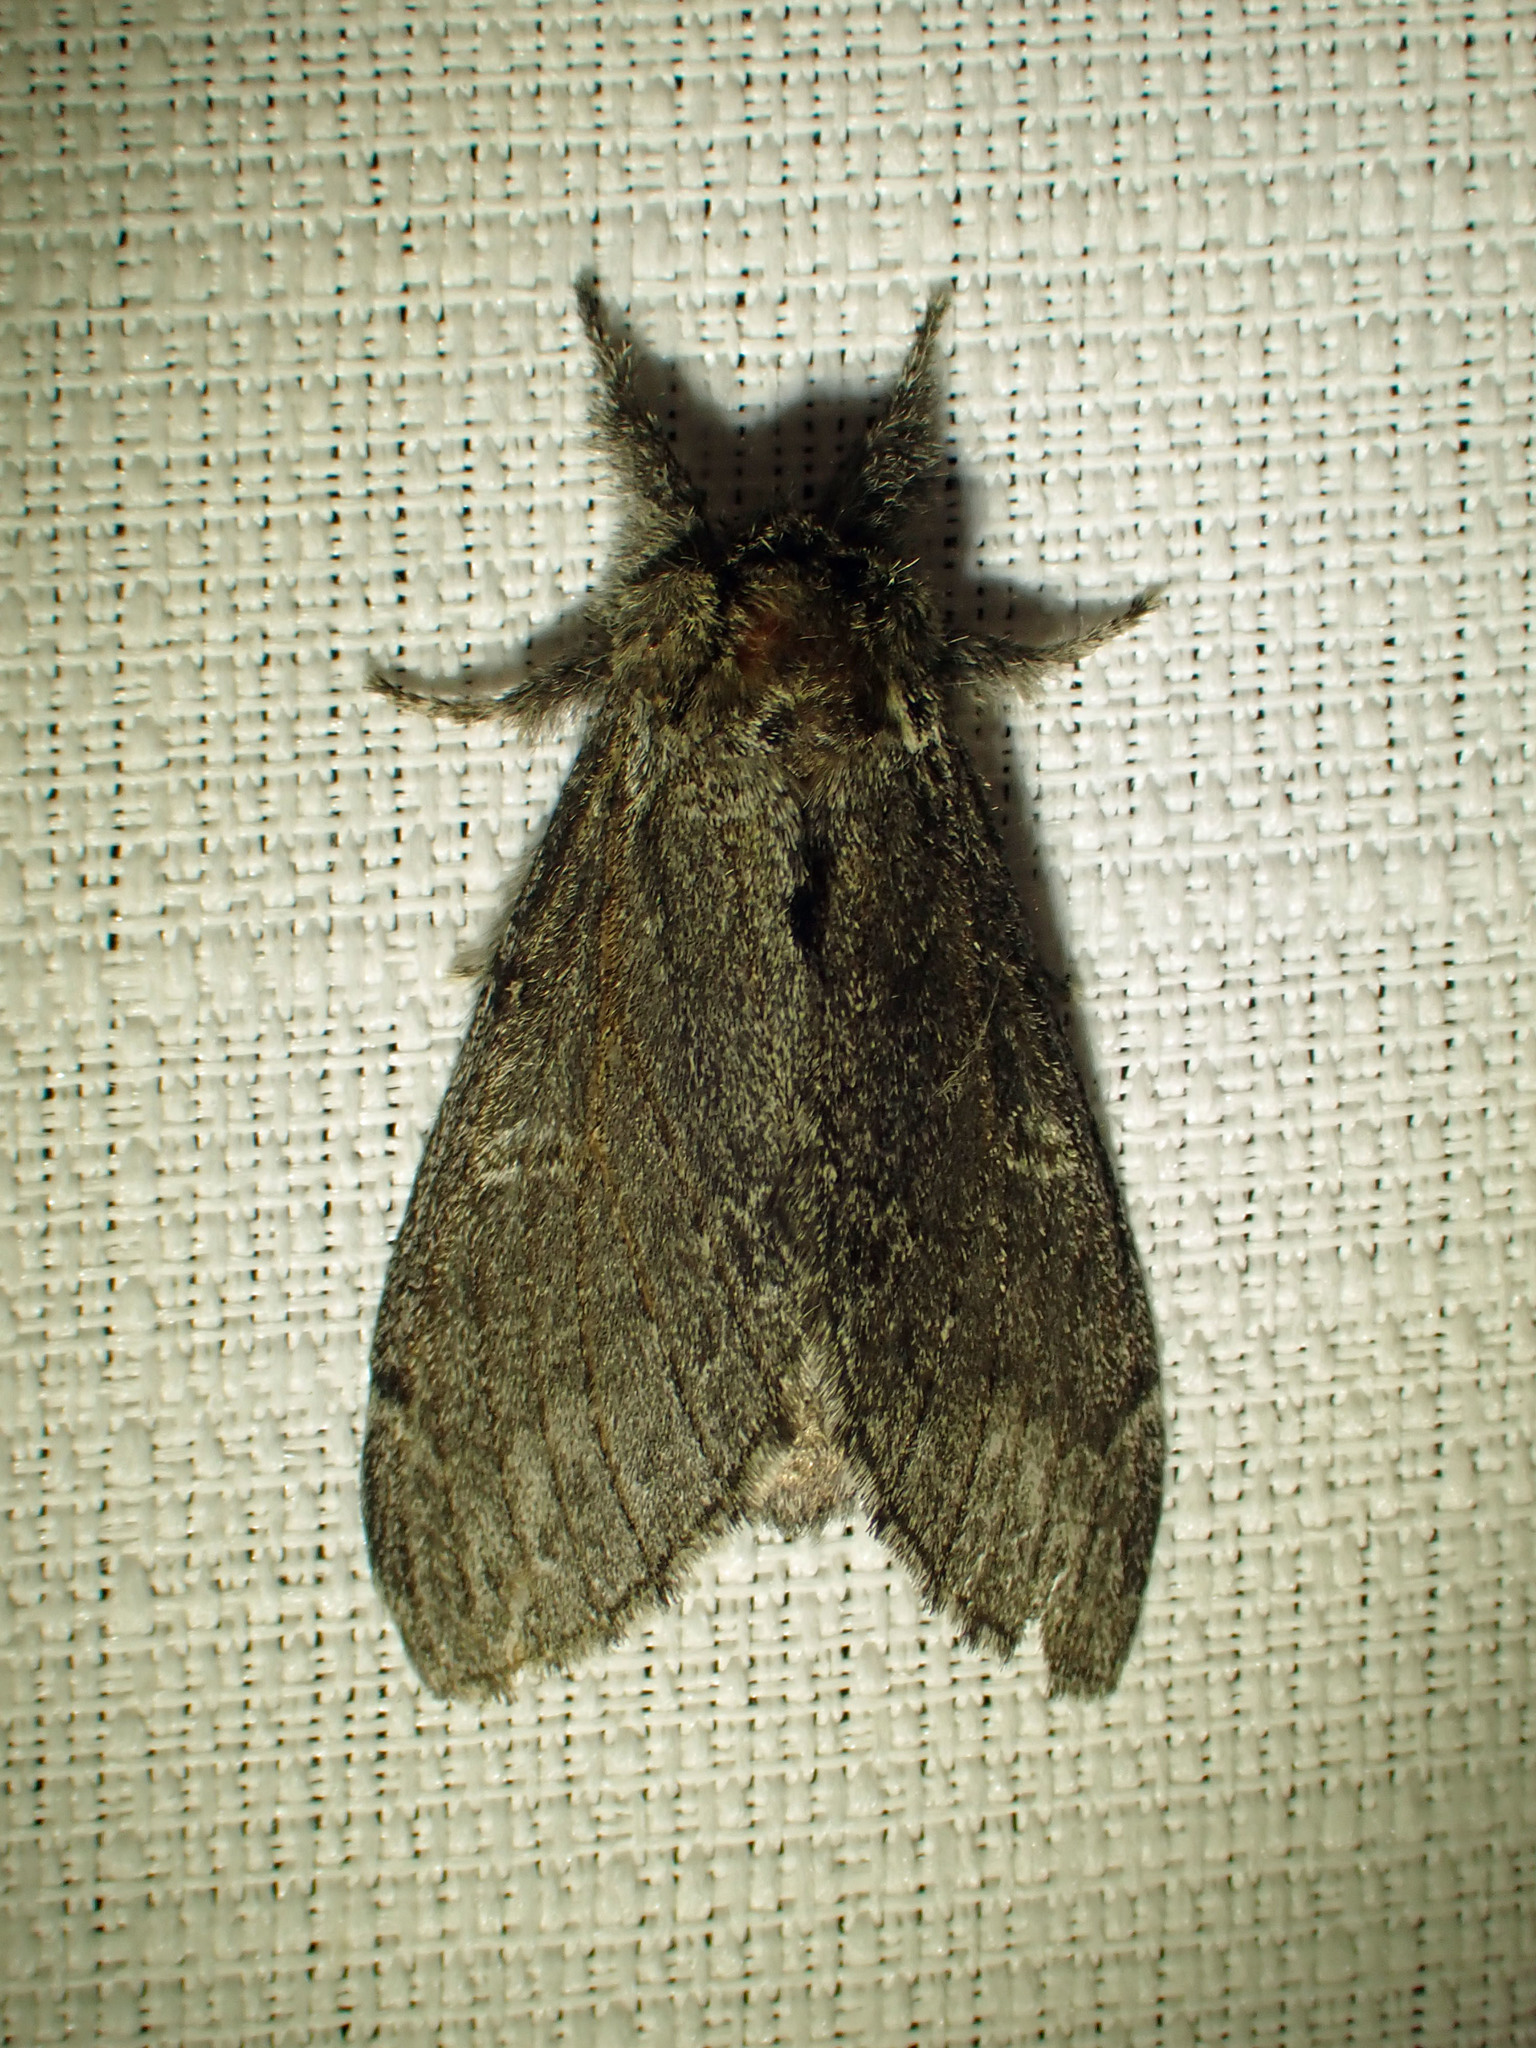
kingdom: Animalia
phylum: Arthropoda
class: Insecta
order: Lepidoptera
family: Notodontidae
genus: Notodonta
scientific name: Notodonta torva
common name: Large dark prominent
